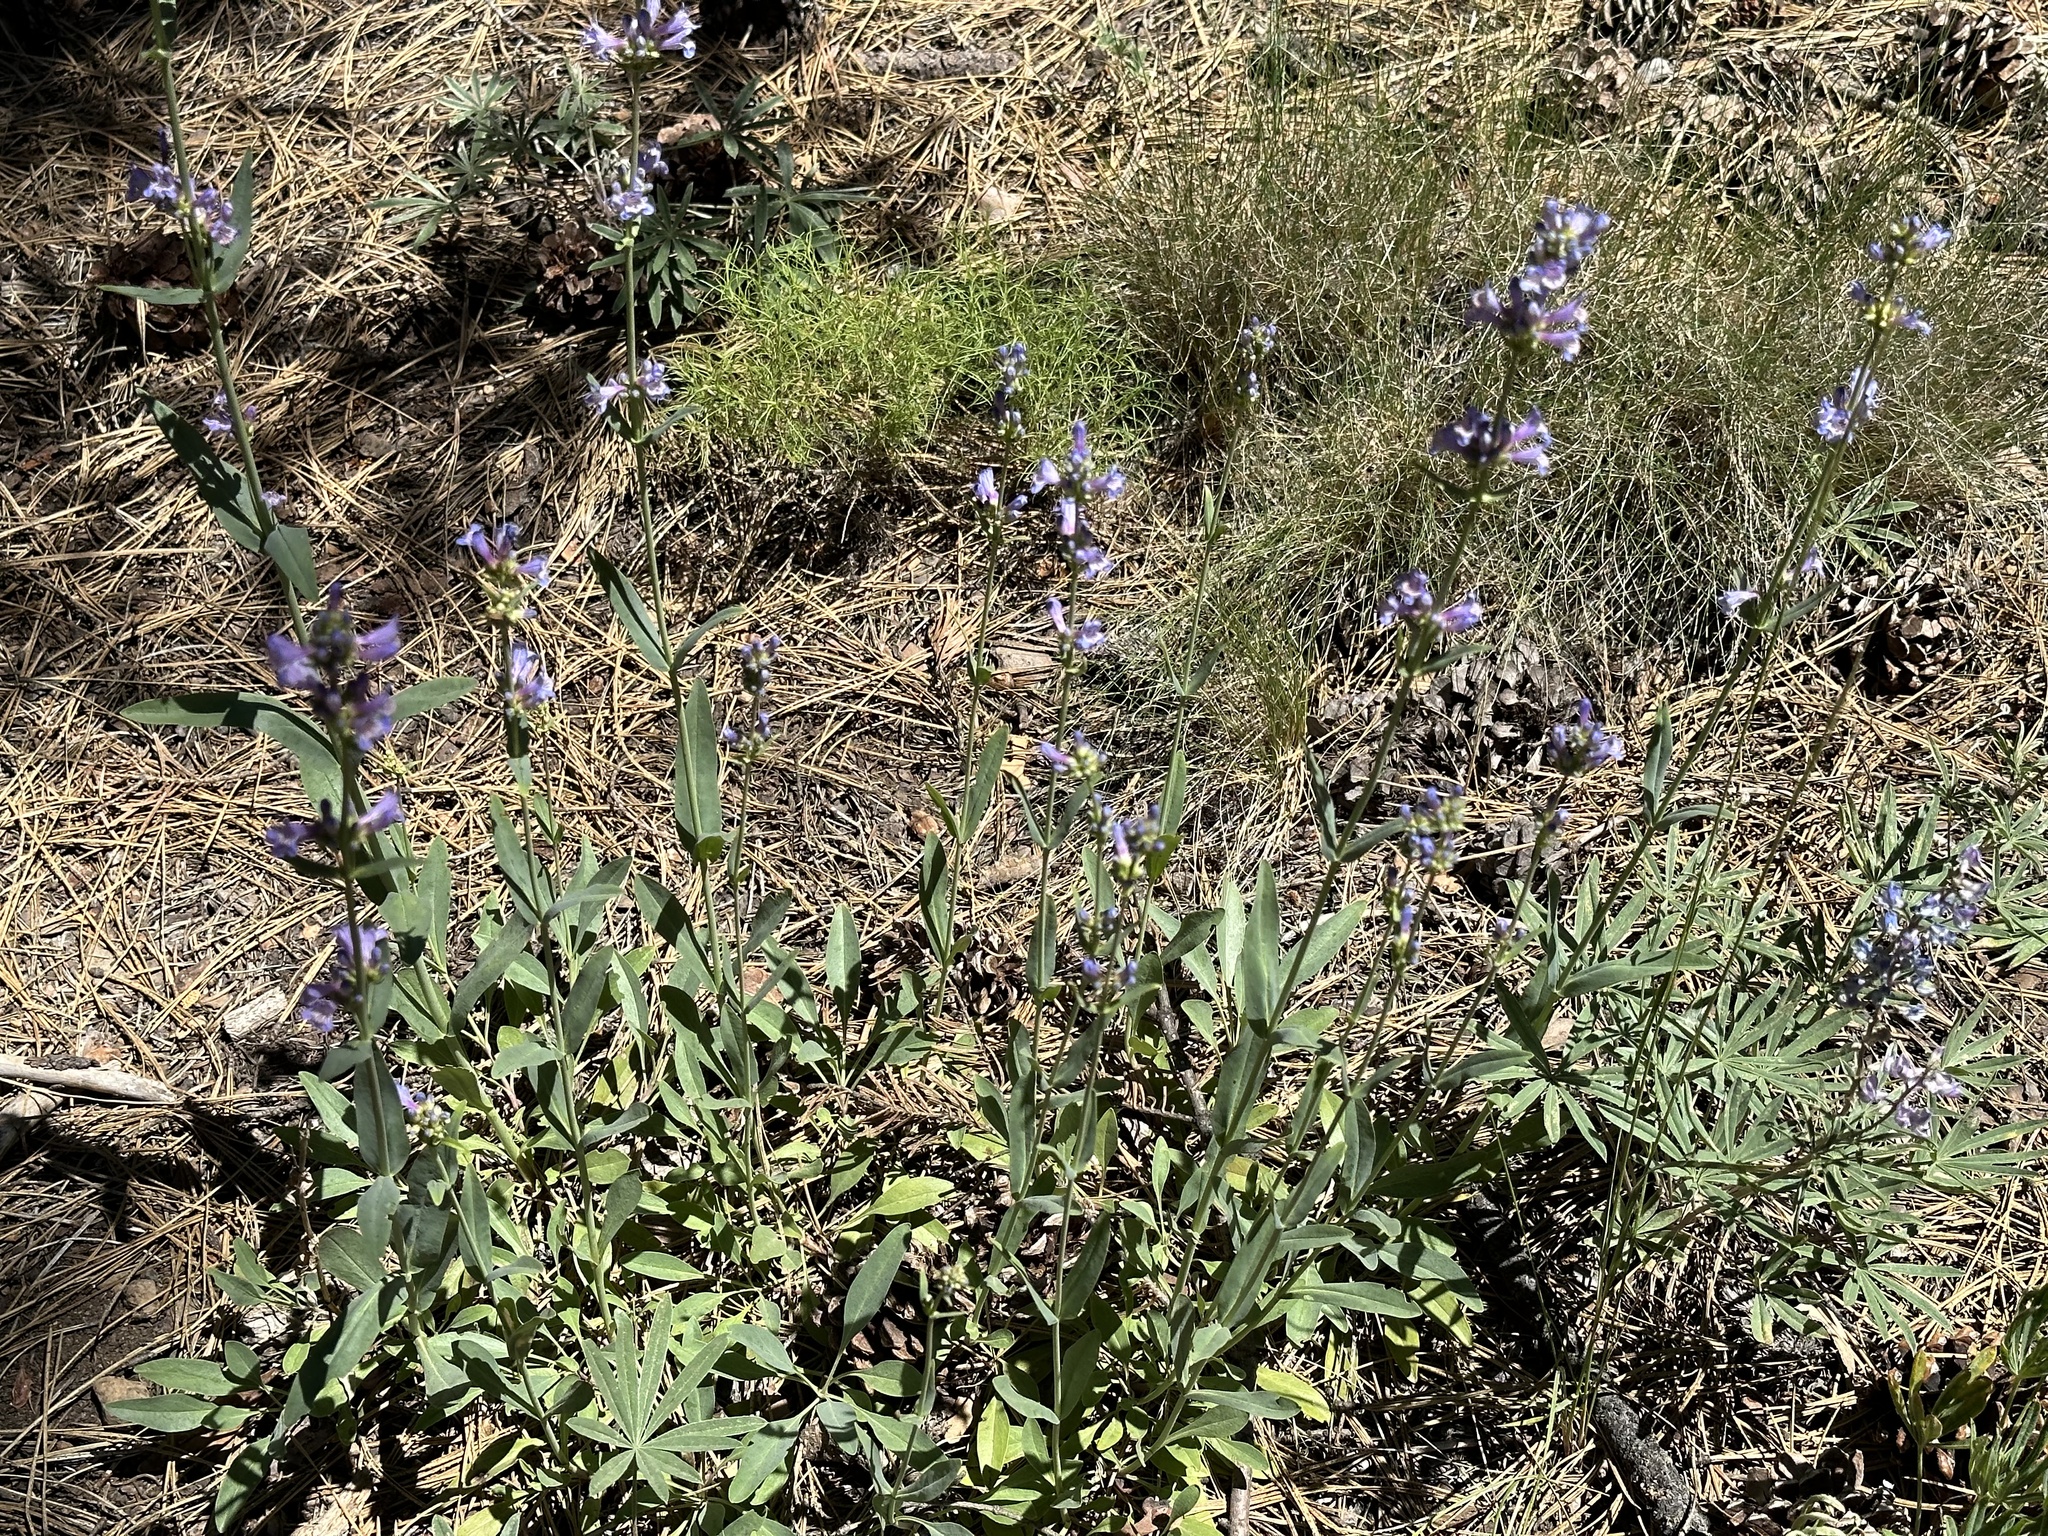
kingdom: Plantae
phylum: Tracheophyta
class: Magnoliopsida
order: Lamiales
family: Plantaginaceae
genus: Penstemon
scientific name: Penstemon euglaucus
